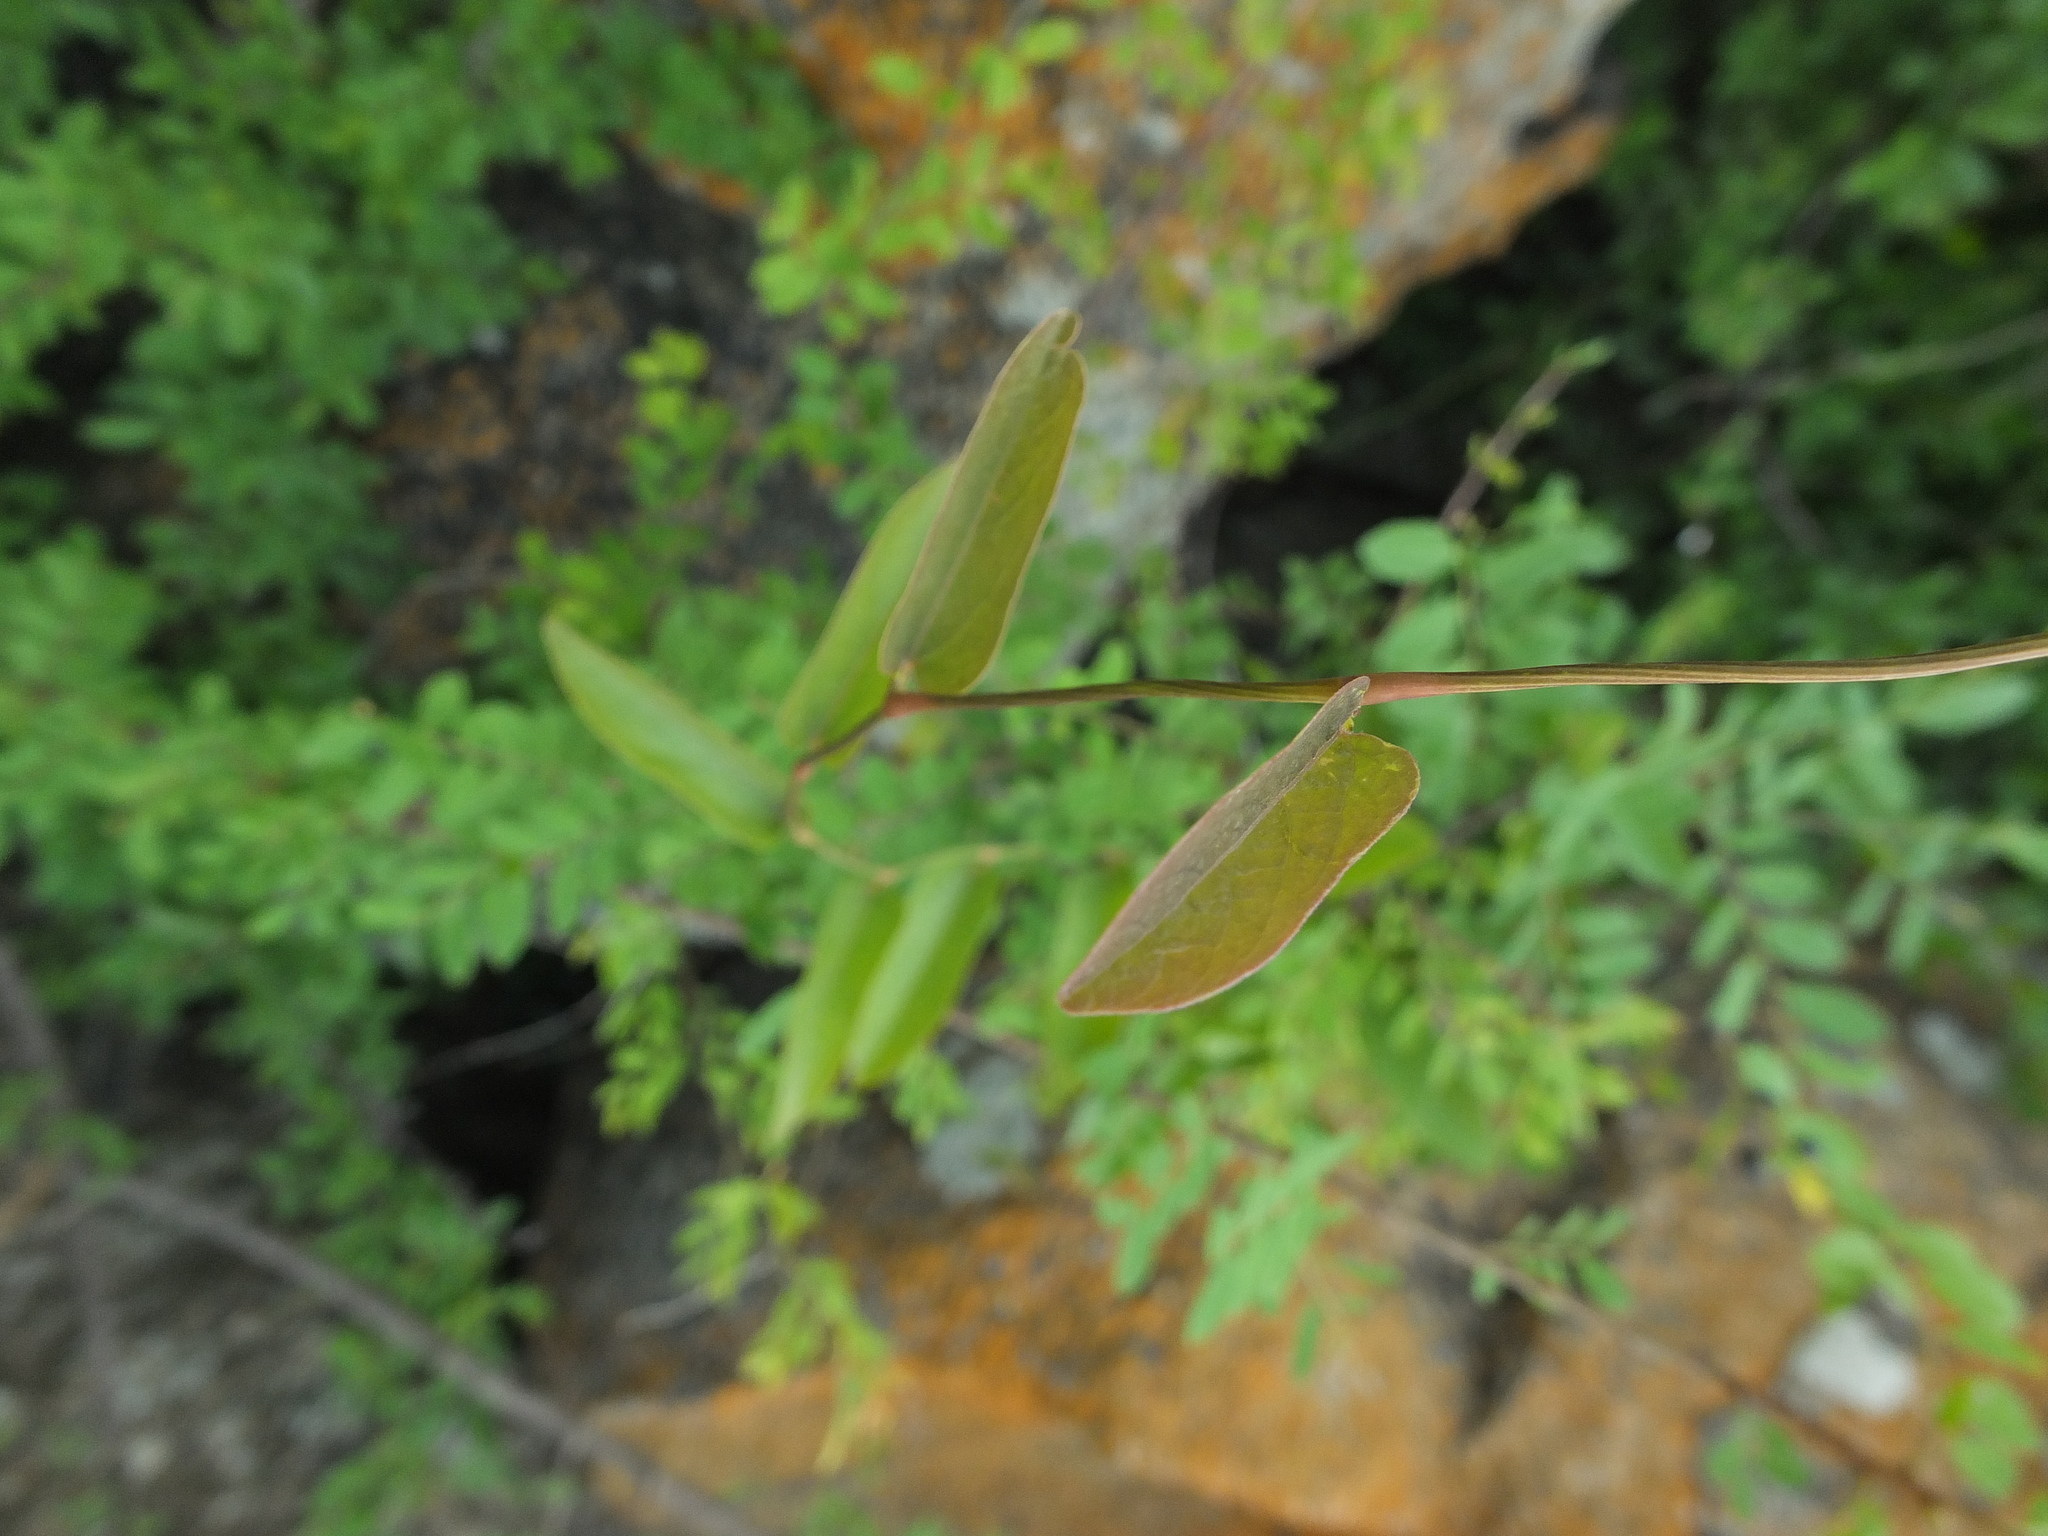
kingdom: Plantae
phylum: Tracheophyta
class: Magnoliopsida
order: Piperales
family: Aristolochiaceae
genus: Aristolochia
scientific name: Aristolochia indica
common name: Indian birthwort
